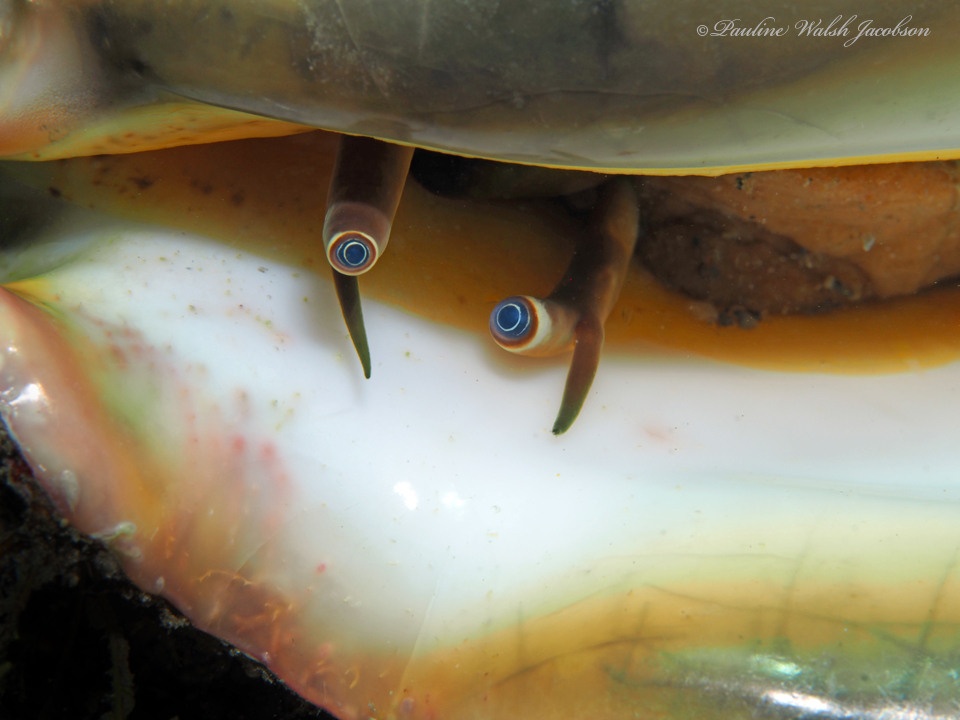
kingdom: Animalia
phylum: Mollusca
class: Gastropoda
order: Littorinimorpha
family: Strombidae
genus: Macrostrombus
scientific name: Macrostrombus costatus
